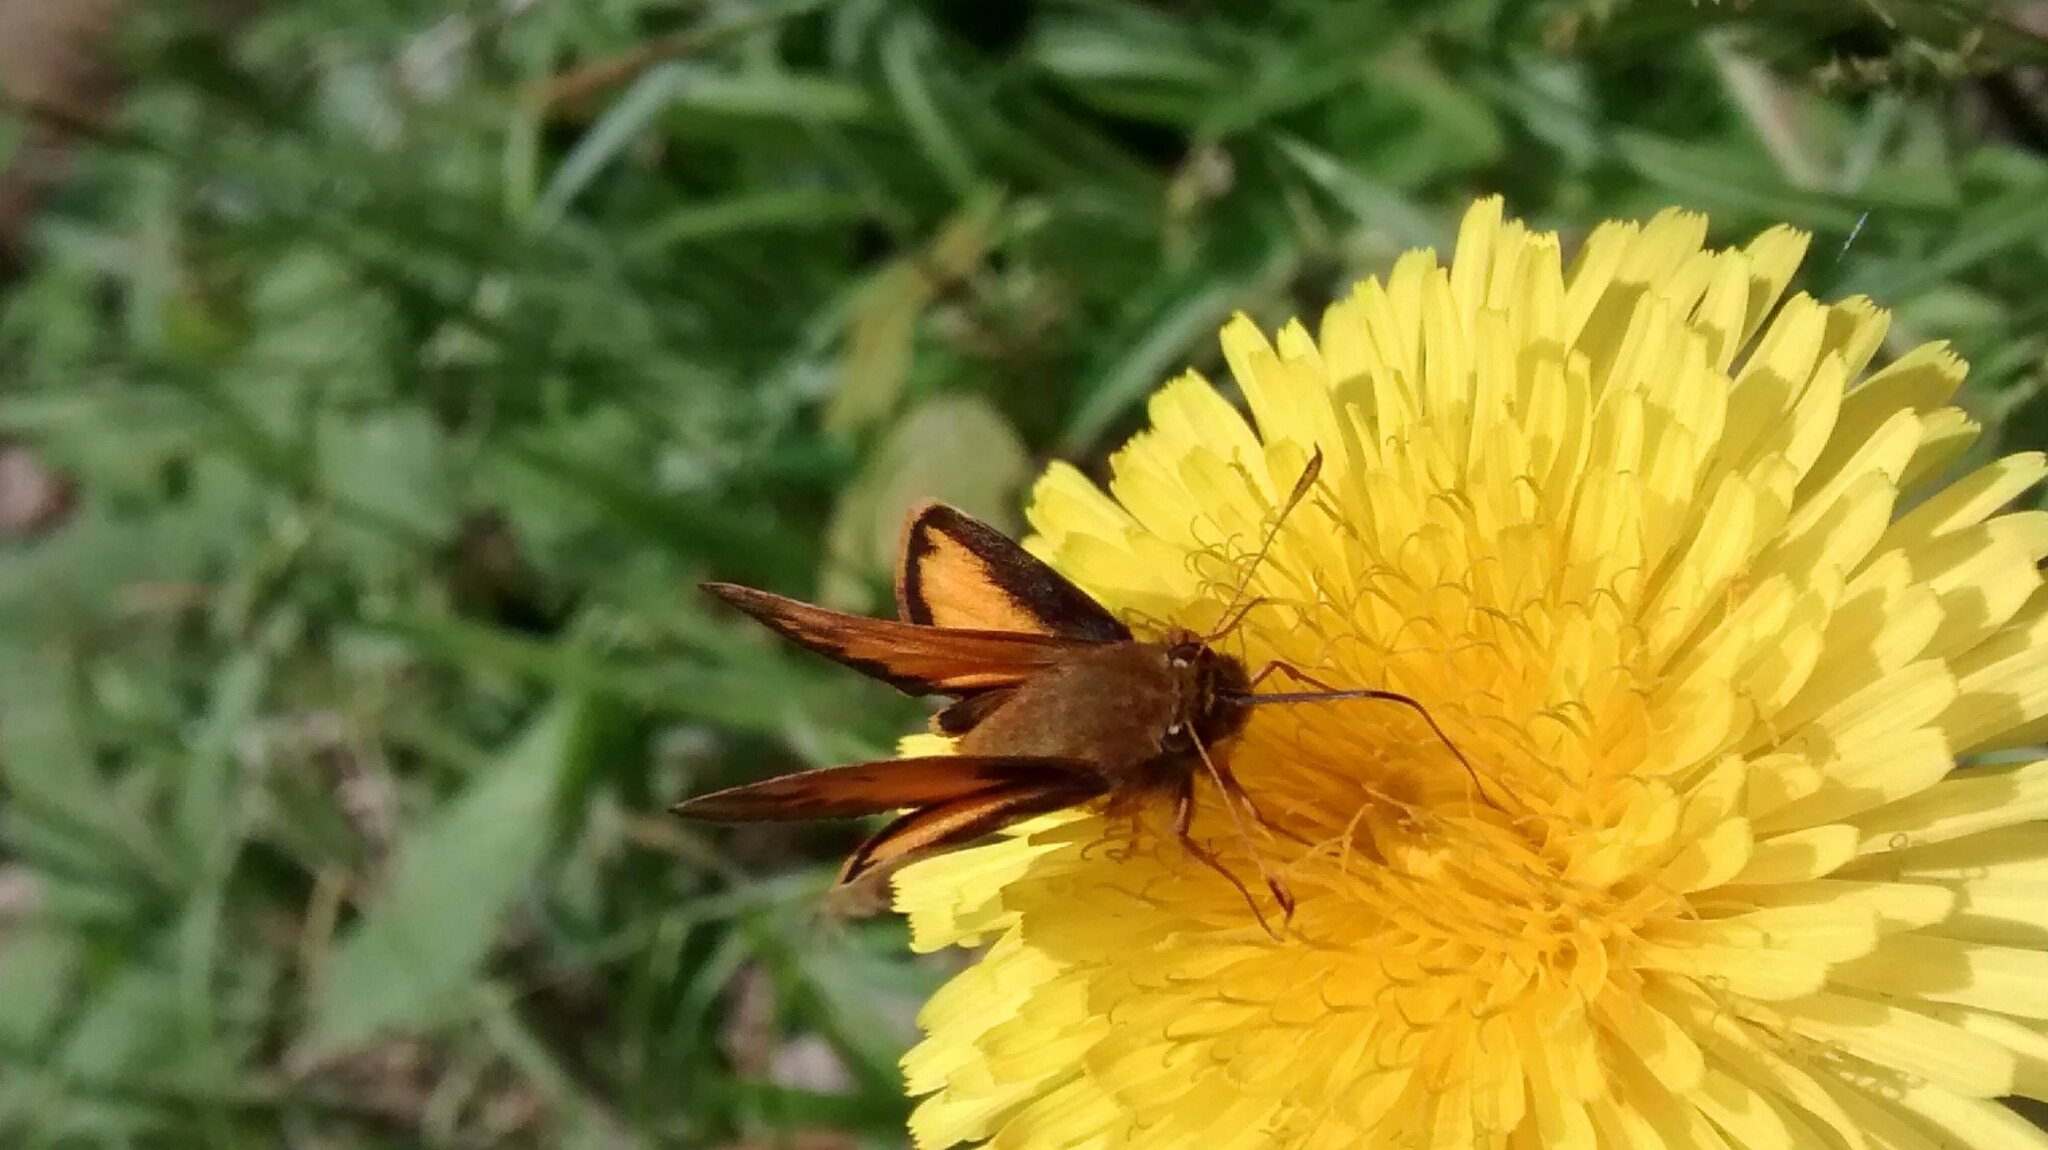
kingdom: Animalia
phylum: Arthropoda
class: Insecta
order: Lepidoptera
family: Hesperiidae
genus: Lon
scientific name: Lon zabulon
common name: Zabulon skipper
